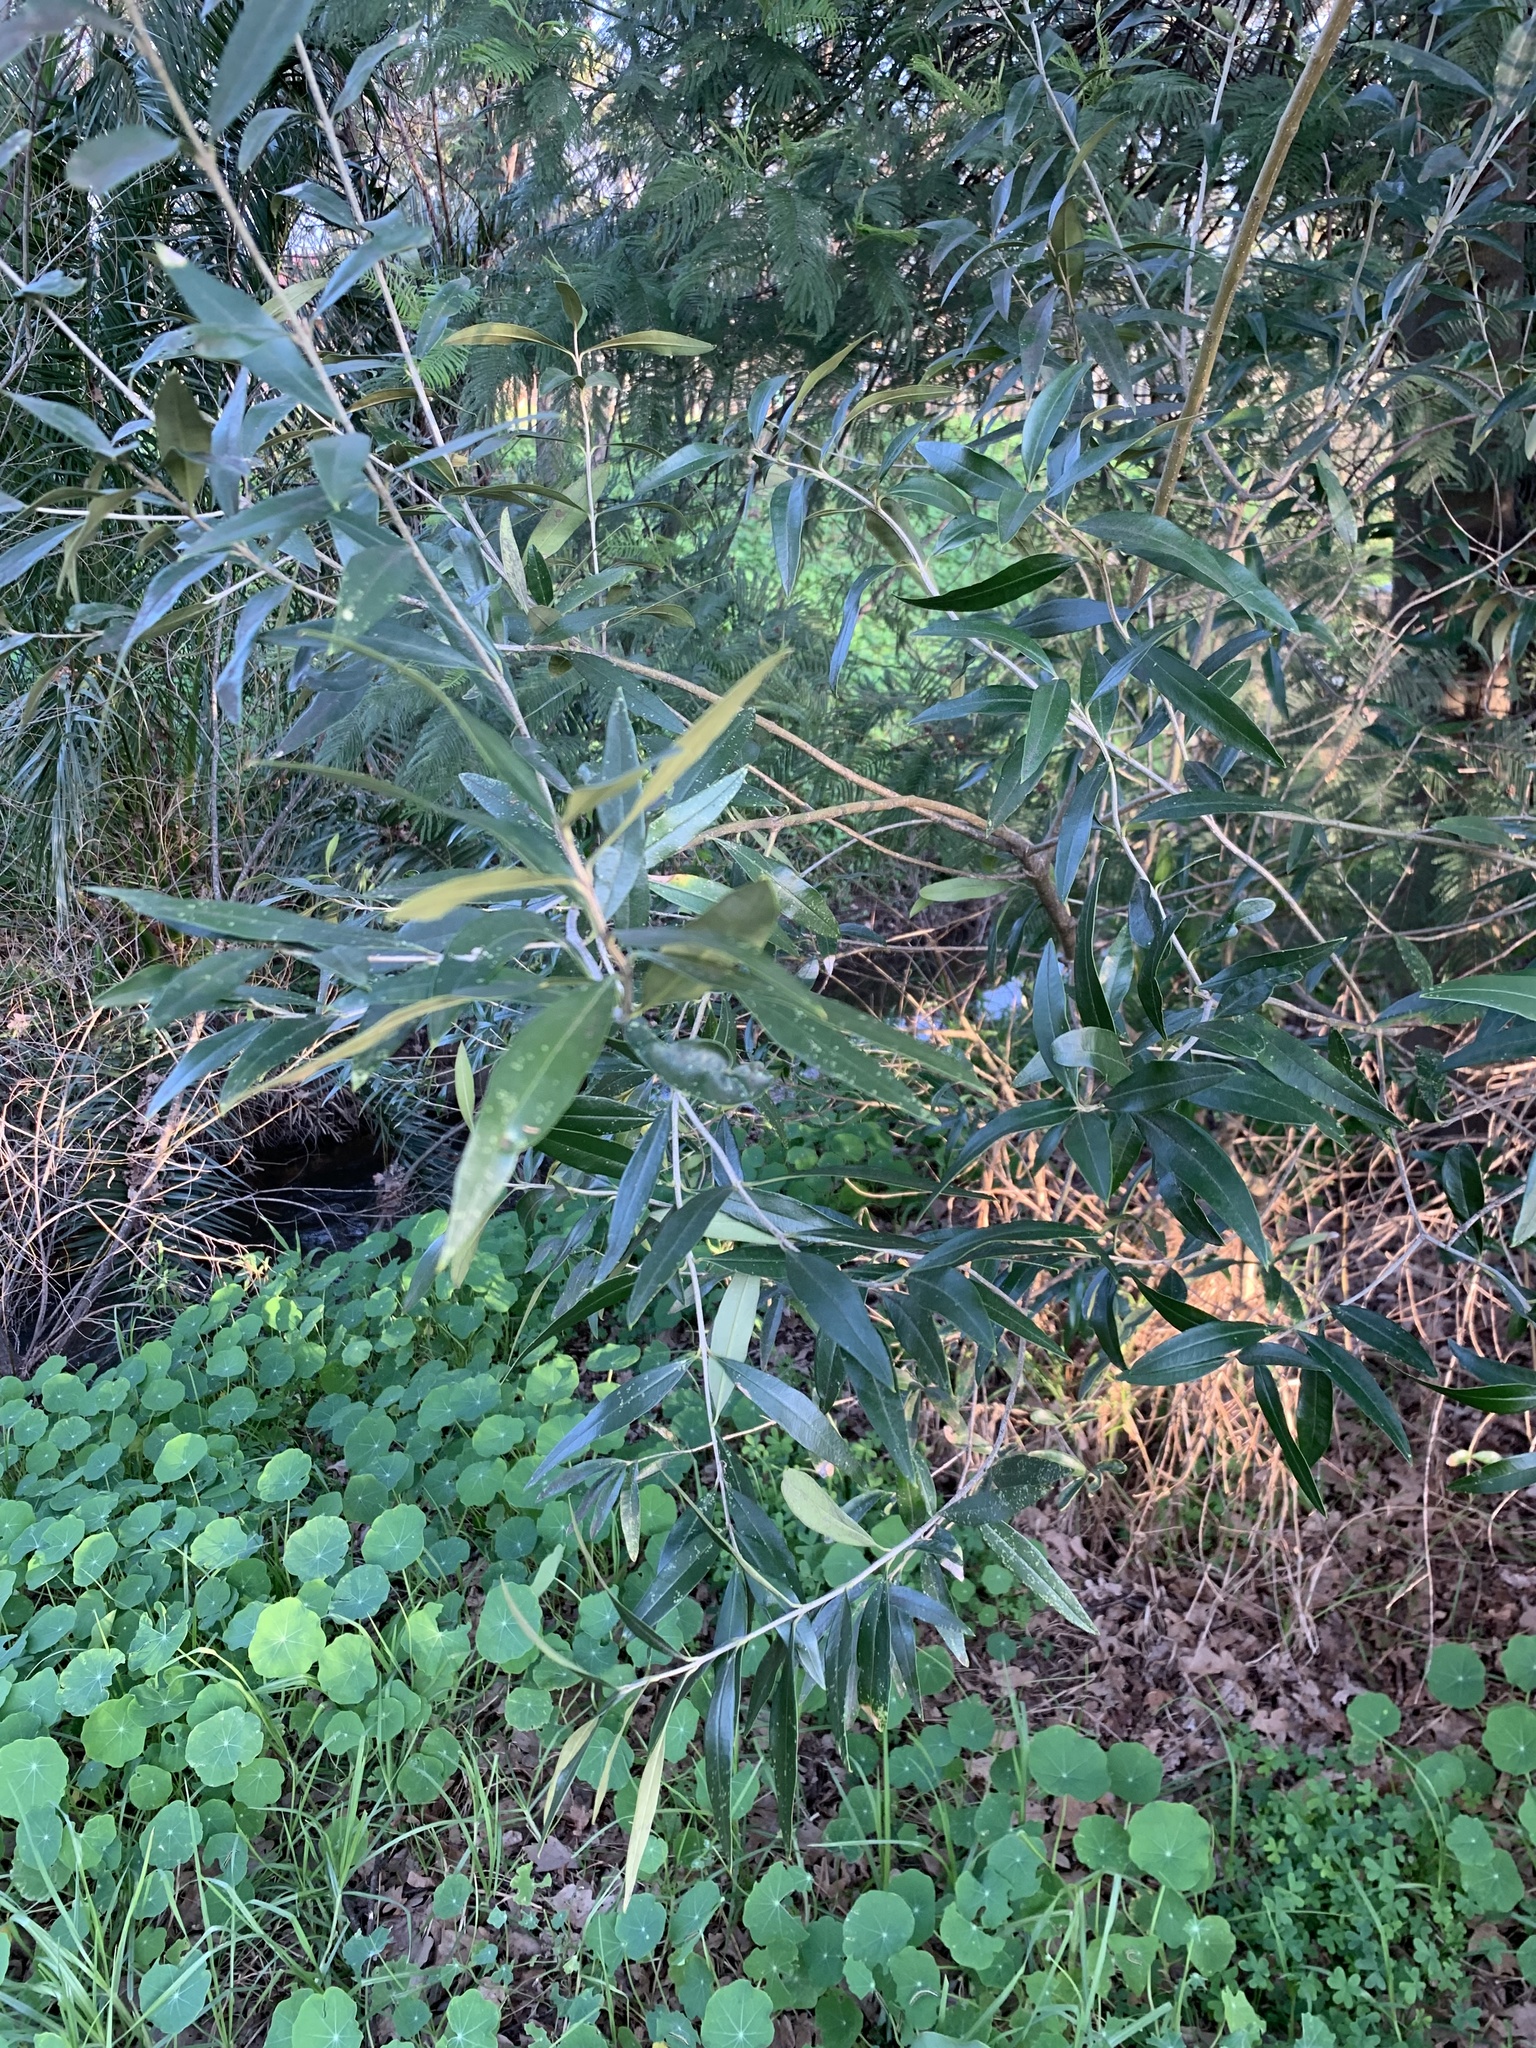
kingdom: Plantae
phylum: Tracheophyta
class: Magnoliopsida
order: Lamiales
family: Oleaceae
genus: Olea
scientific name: Olea europaea
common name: Olive
